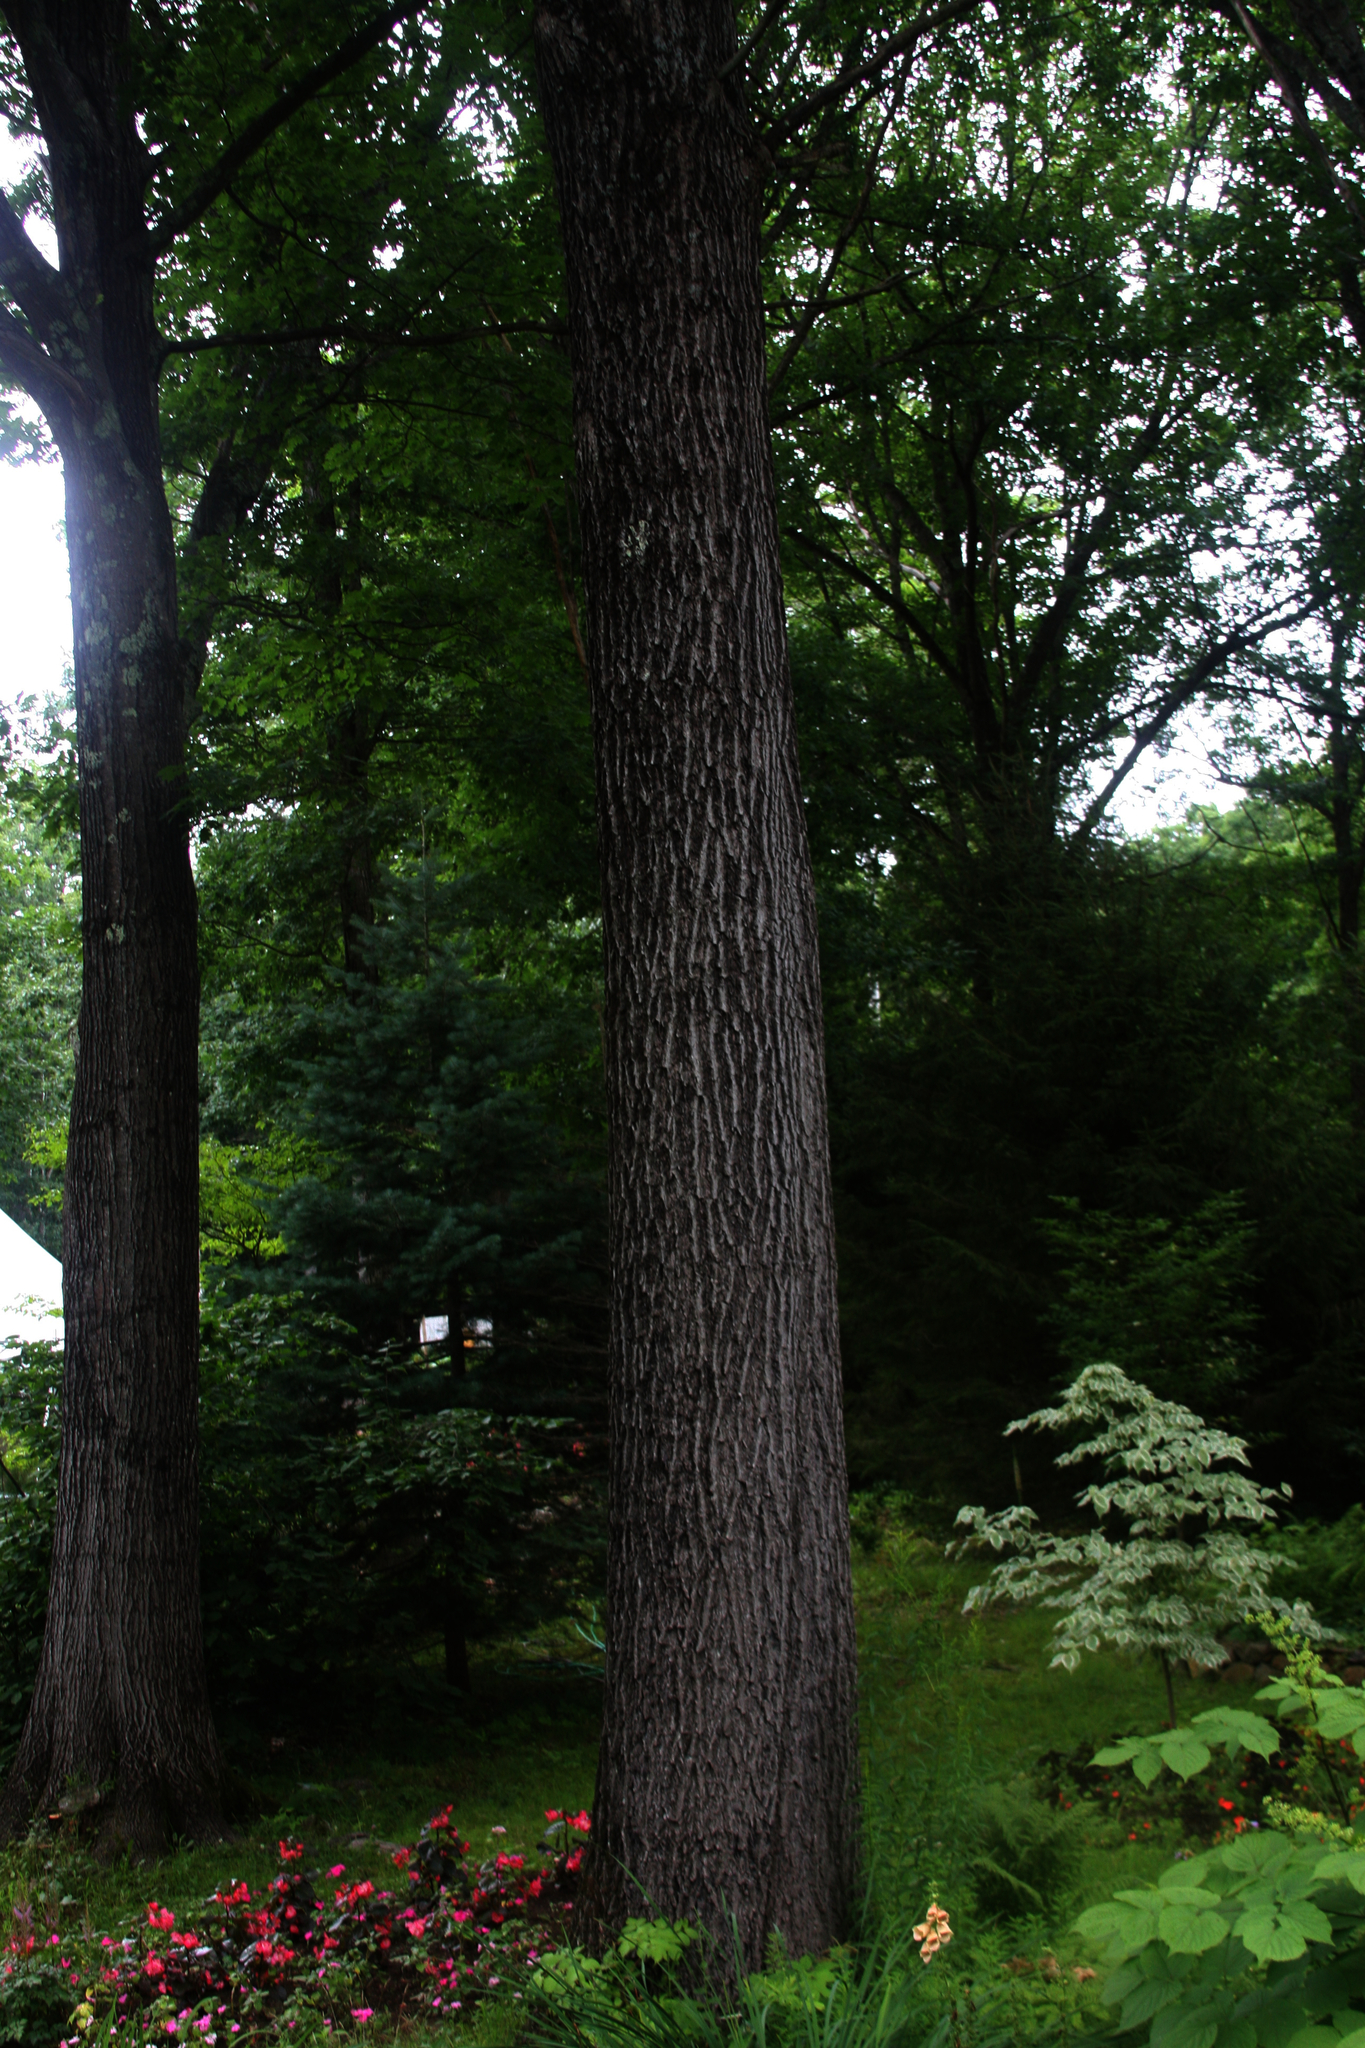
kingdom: Plantae
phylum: Tracheophyta
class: Magnoliopsida
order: Fagales
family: Fagaceae
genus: Quercus
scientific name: Quercus rubra
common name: Red oak
